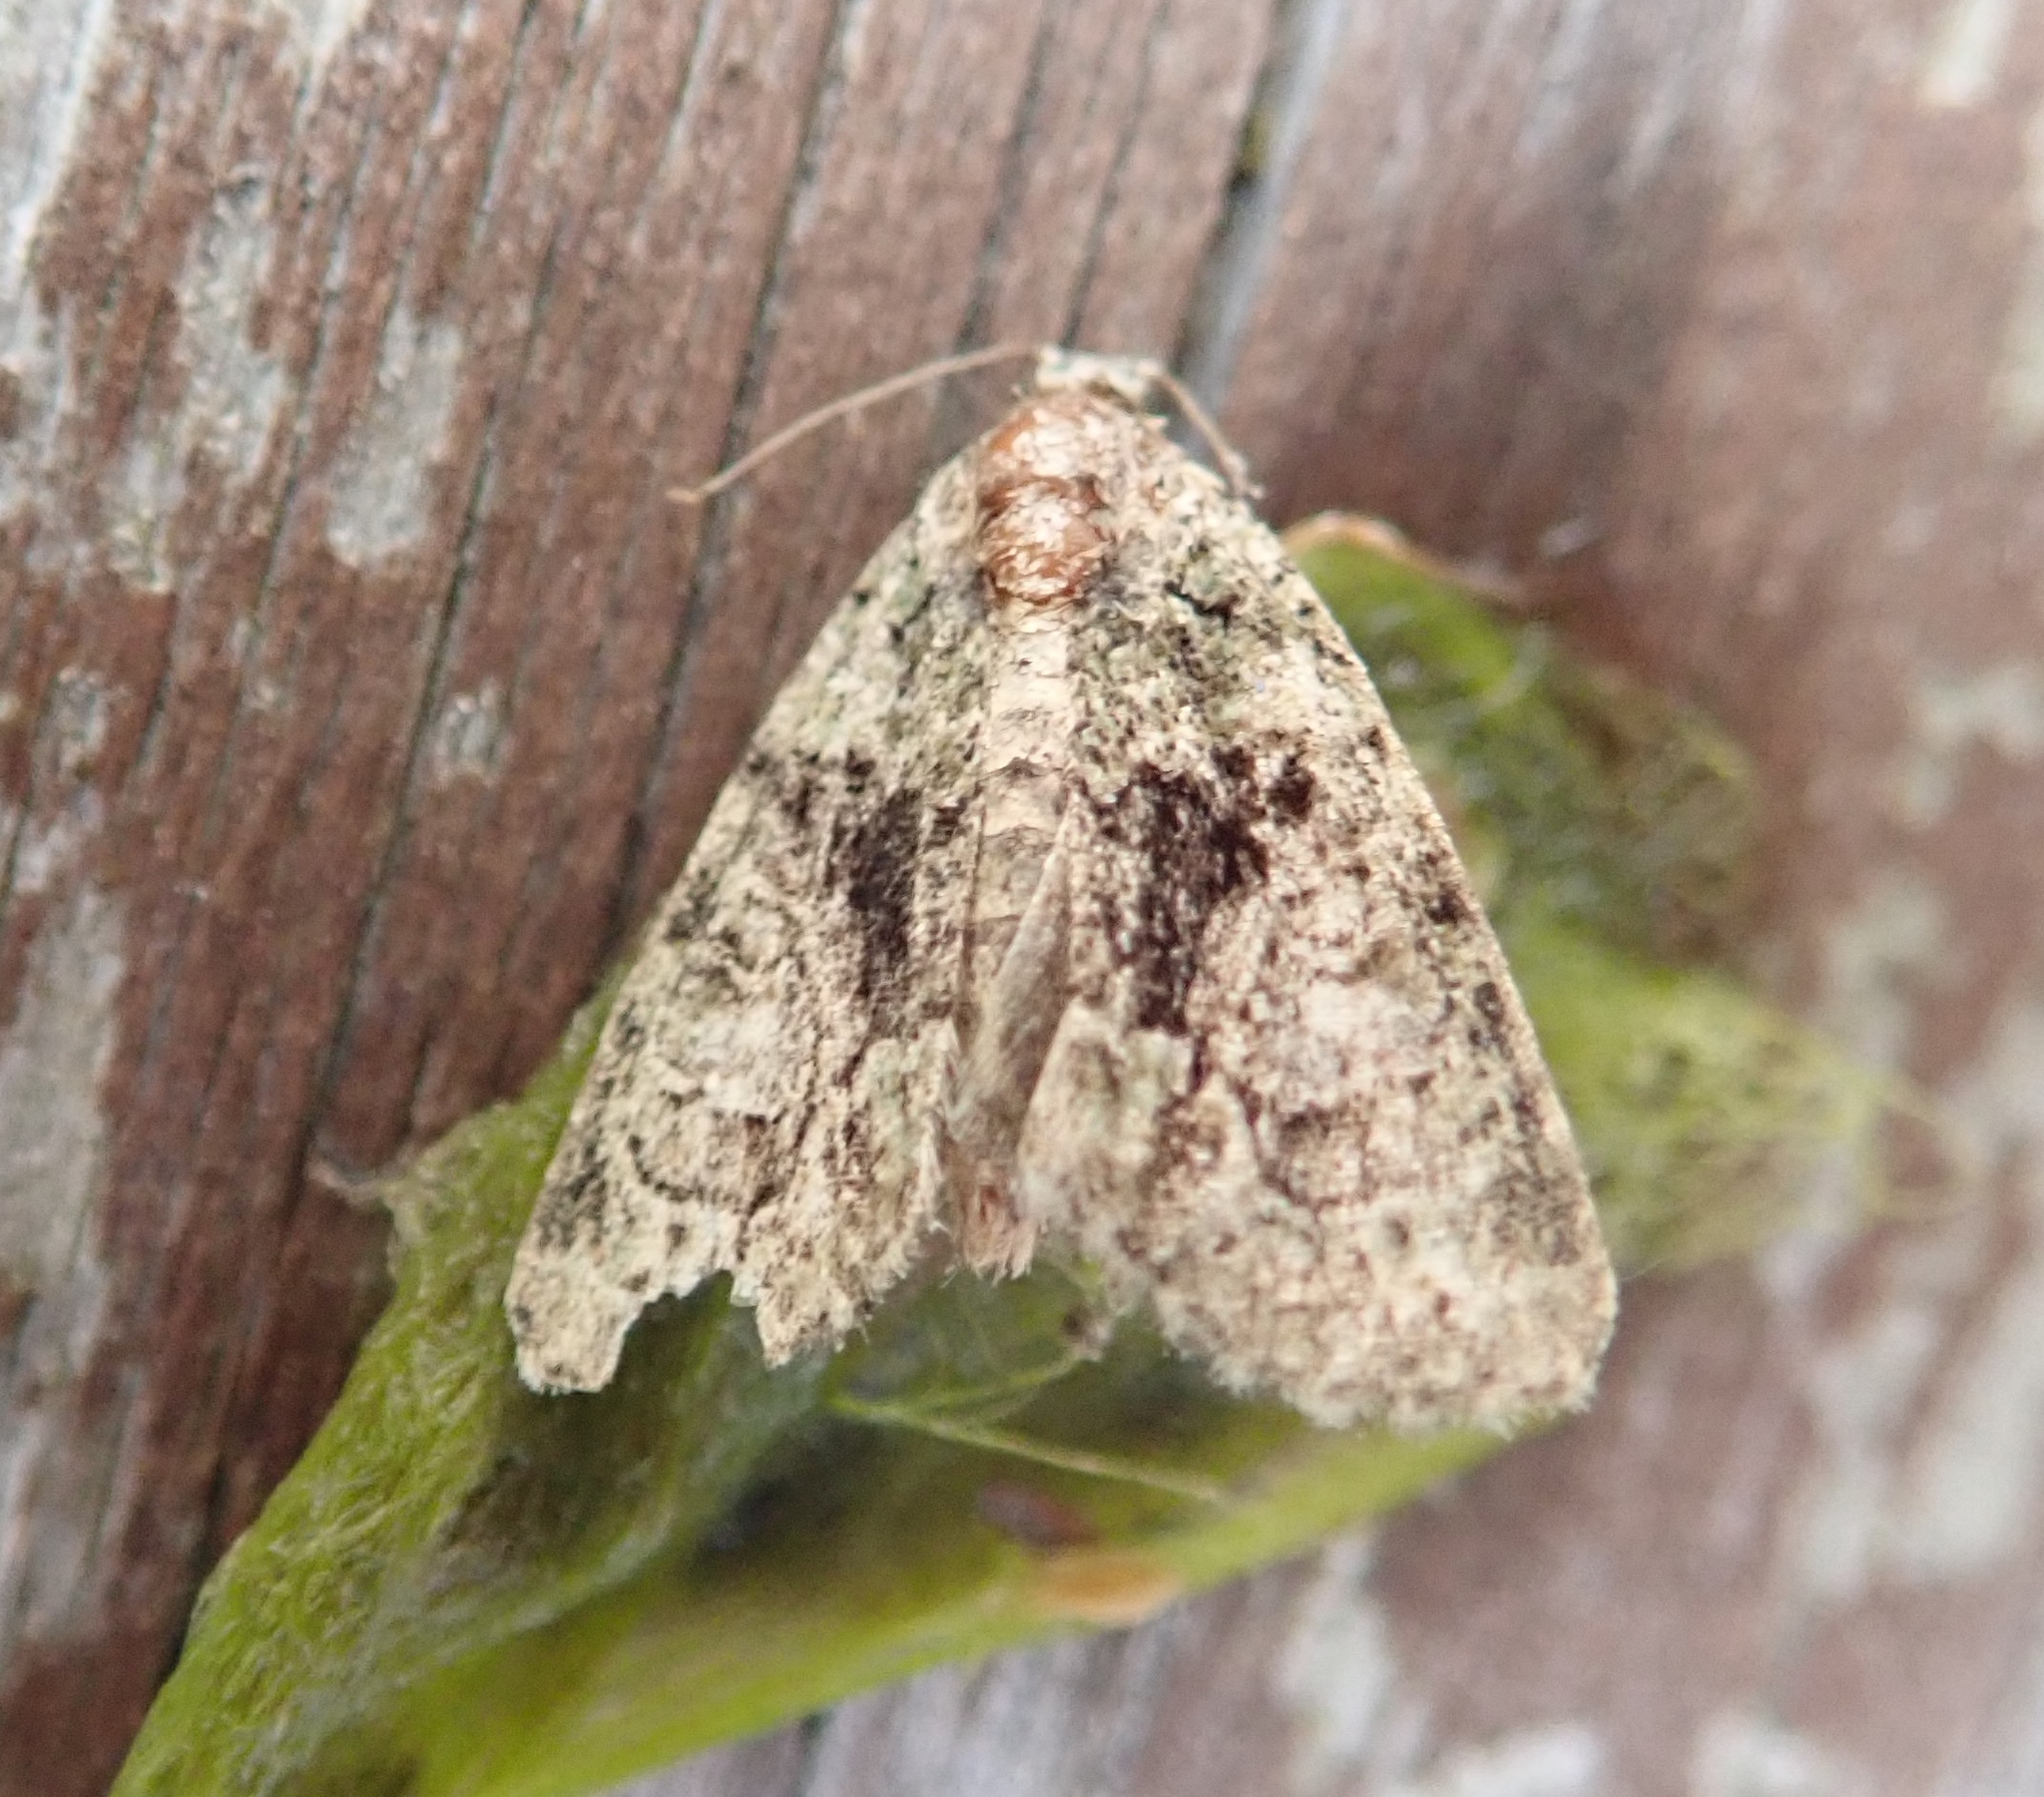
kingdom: Animalia
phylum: Arthropoda
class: Insecta
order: Lepidoptera
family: Noctuidae
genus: Cryphia
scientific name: Cryphia algae
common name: Tree-lichen beauty
